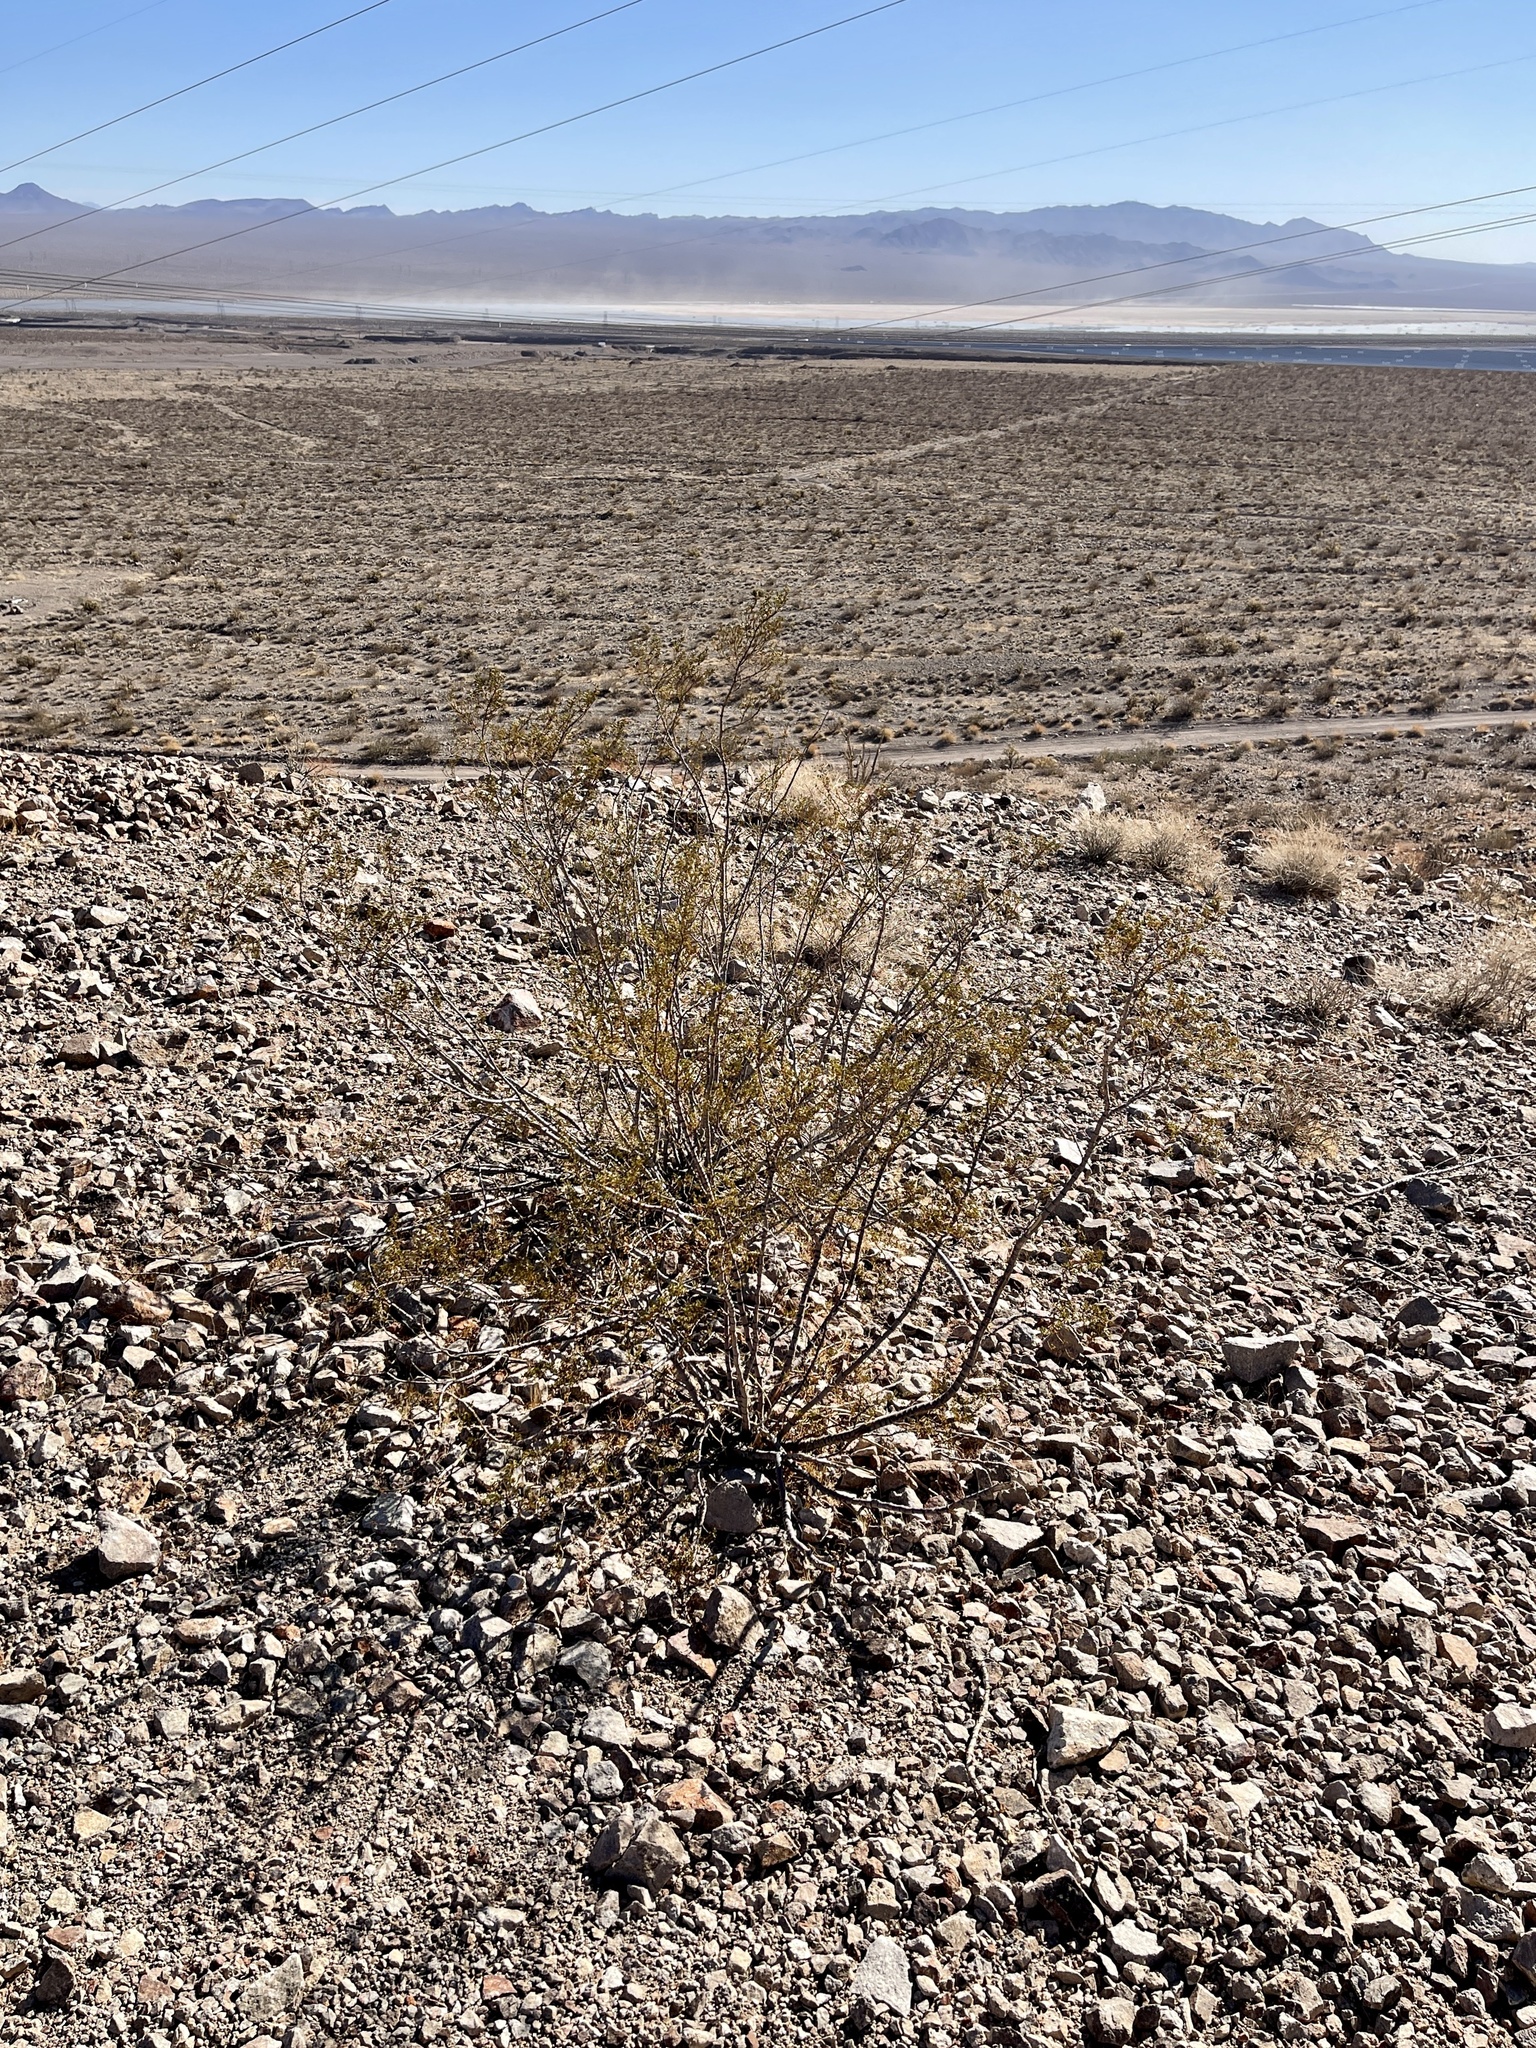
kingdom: Plantae
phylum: Tracheophyta
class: Magnoliopsida
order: Zygophyllales
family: Zygophyllaceae
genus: Larrea
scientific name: Larrea tridentata
